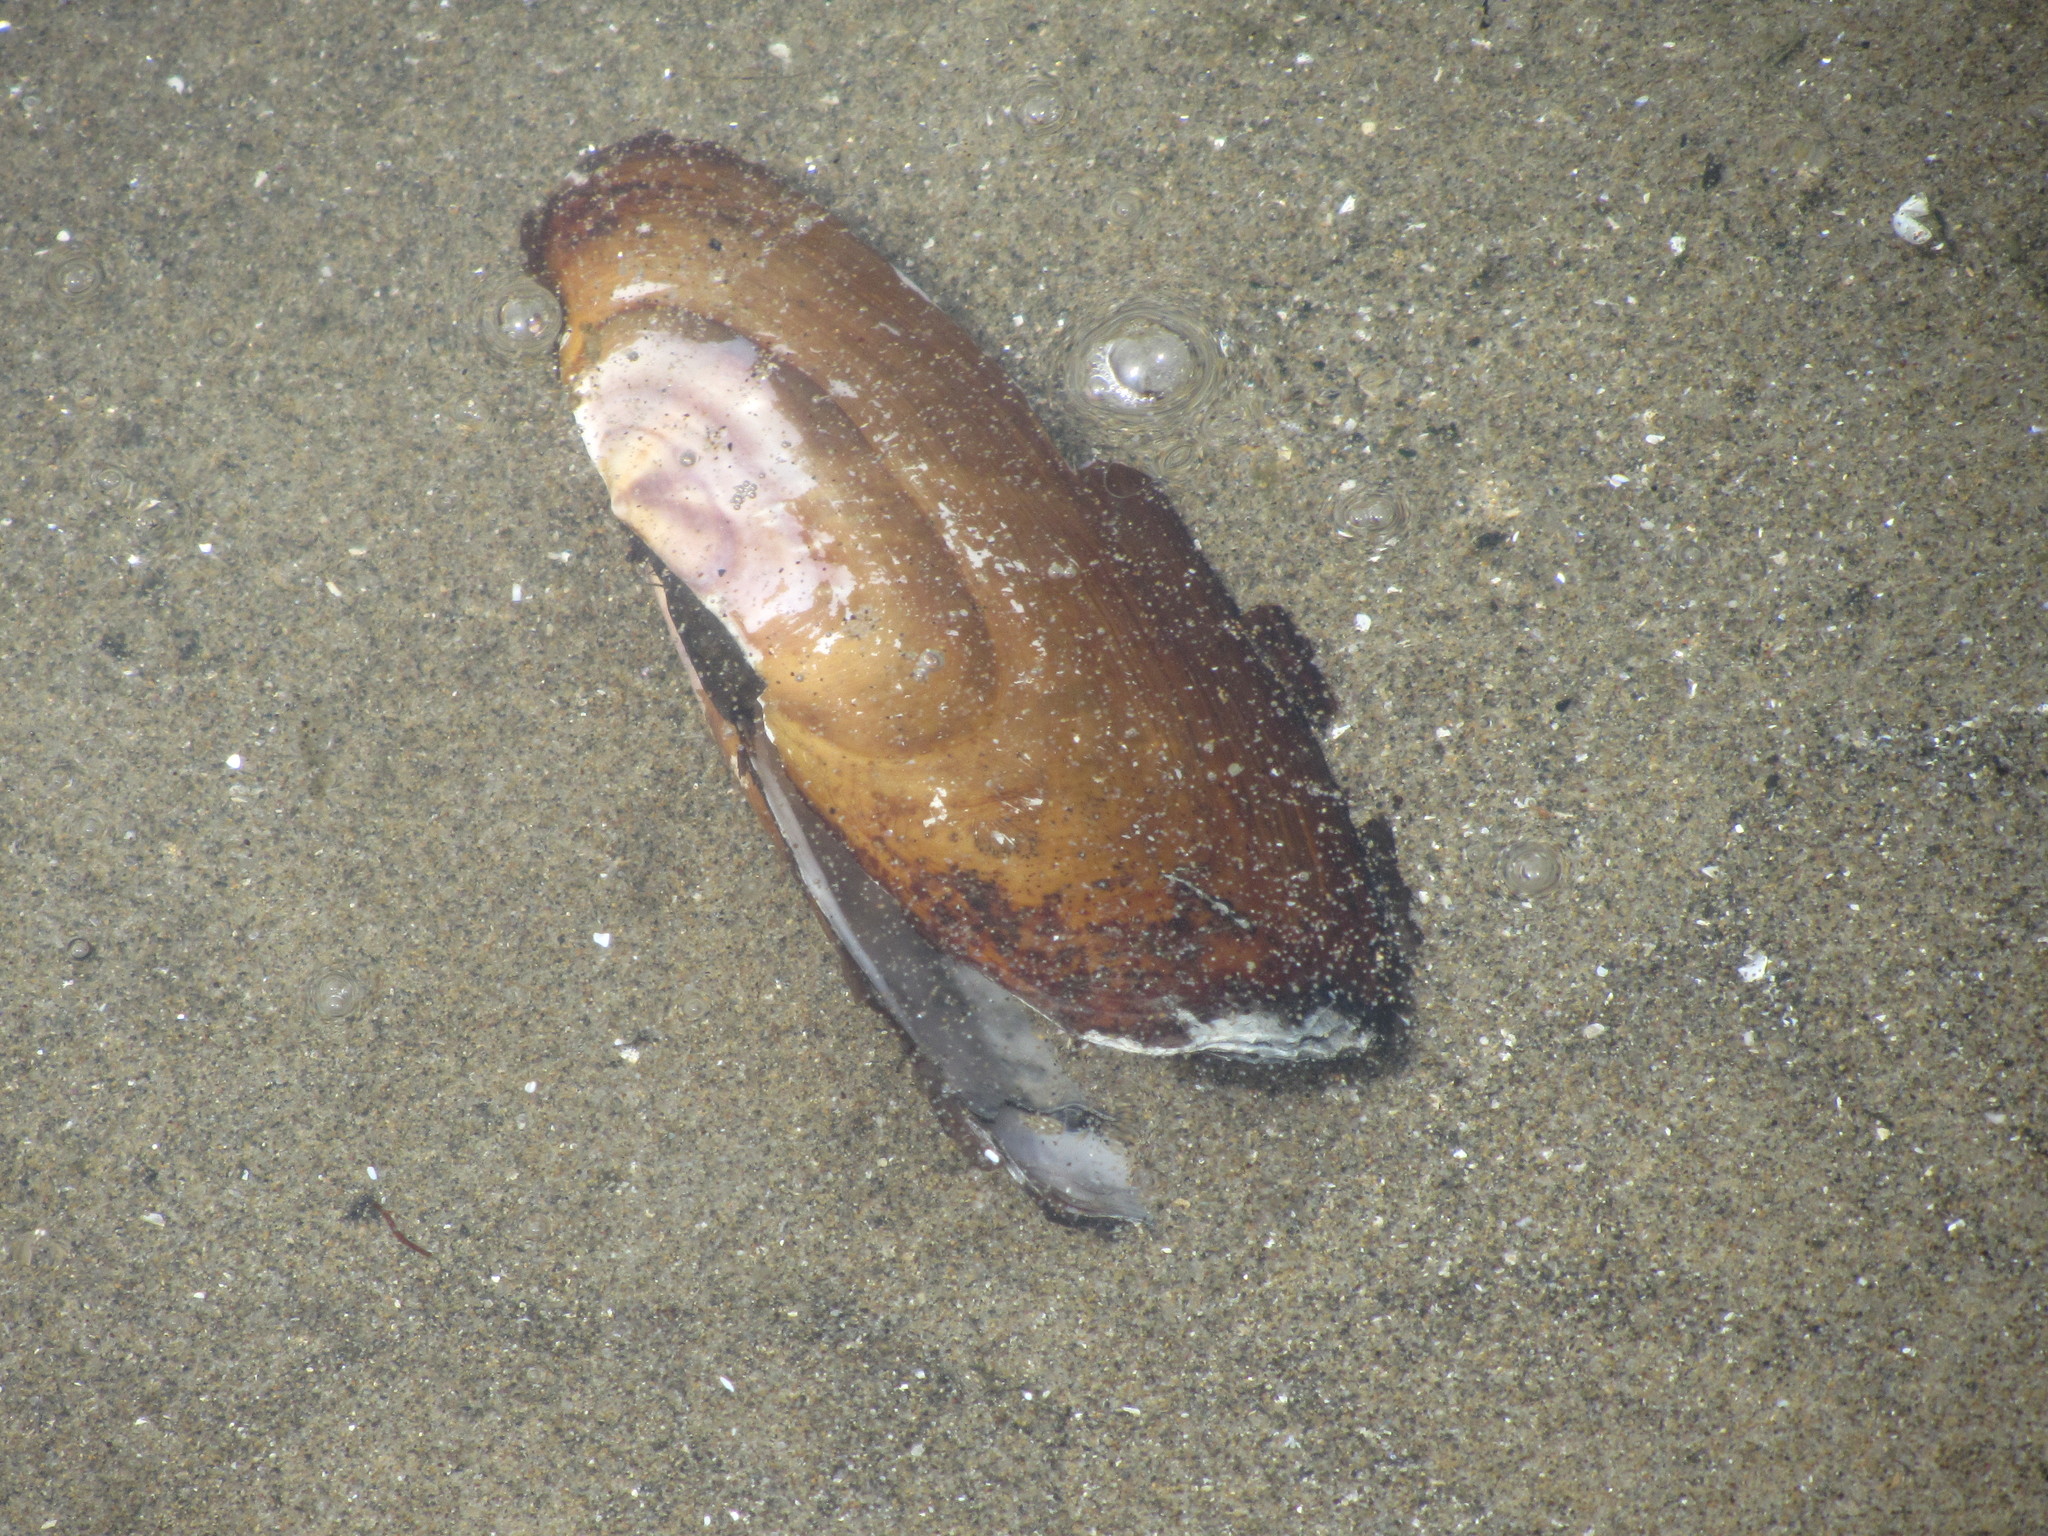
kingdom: Animalia
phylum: Mollusca
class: Bivalvia
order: Adapedonta
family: Pharidae
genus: Siliqua
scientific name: Siliqua patula
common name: Pacific razor clam
